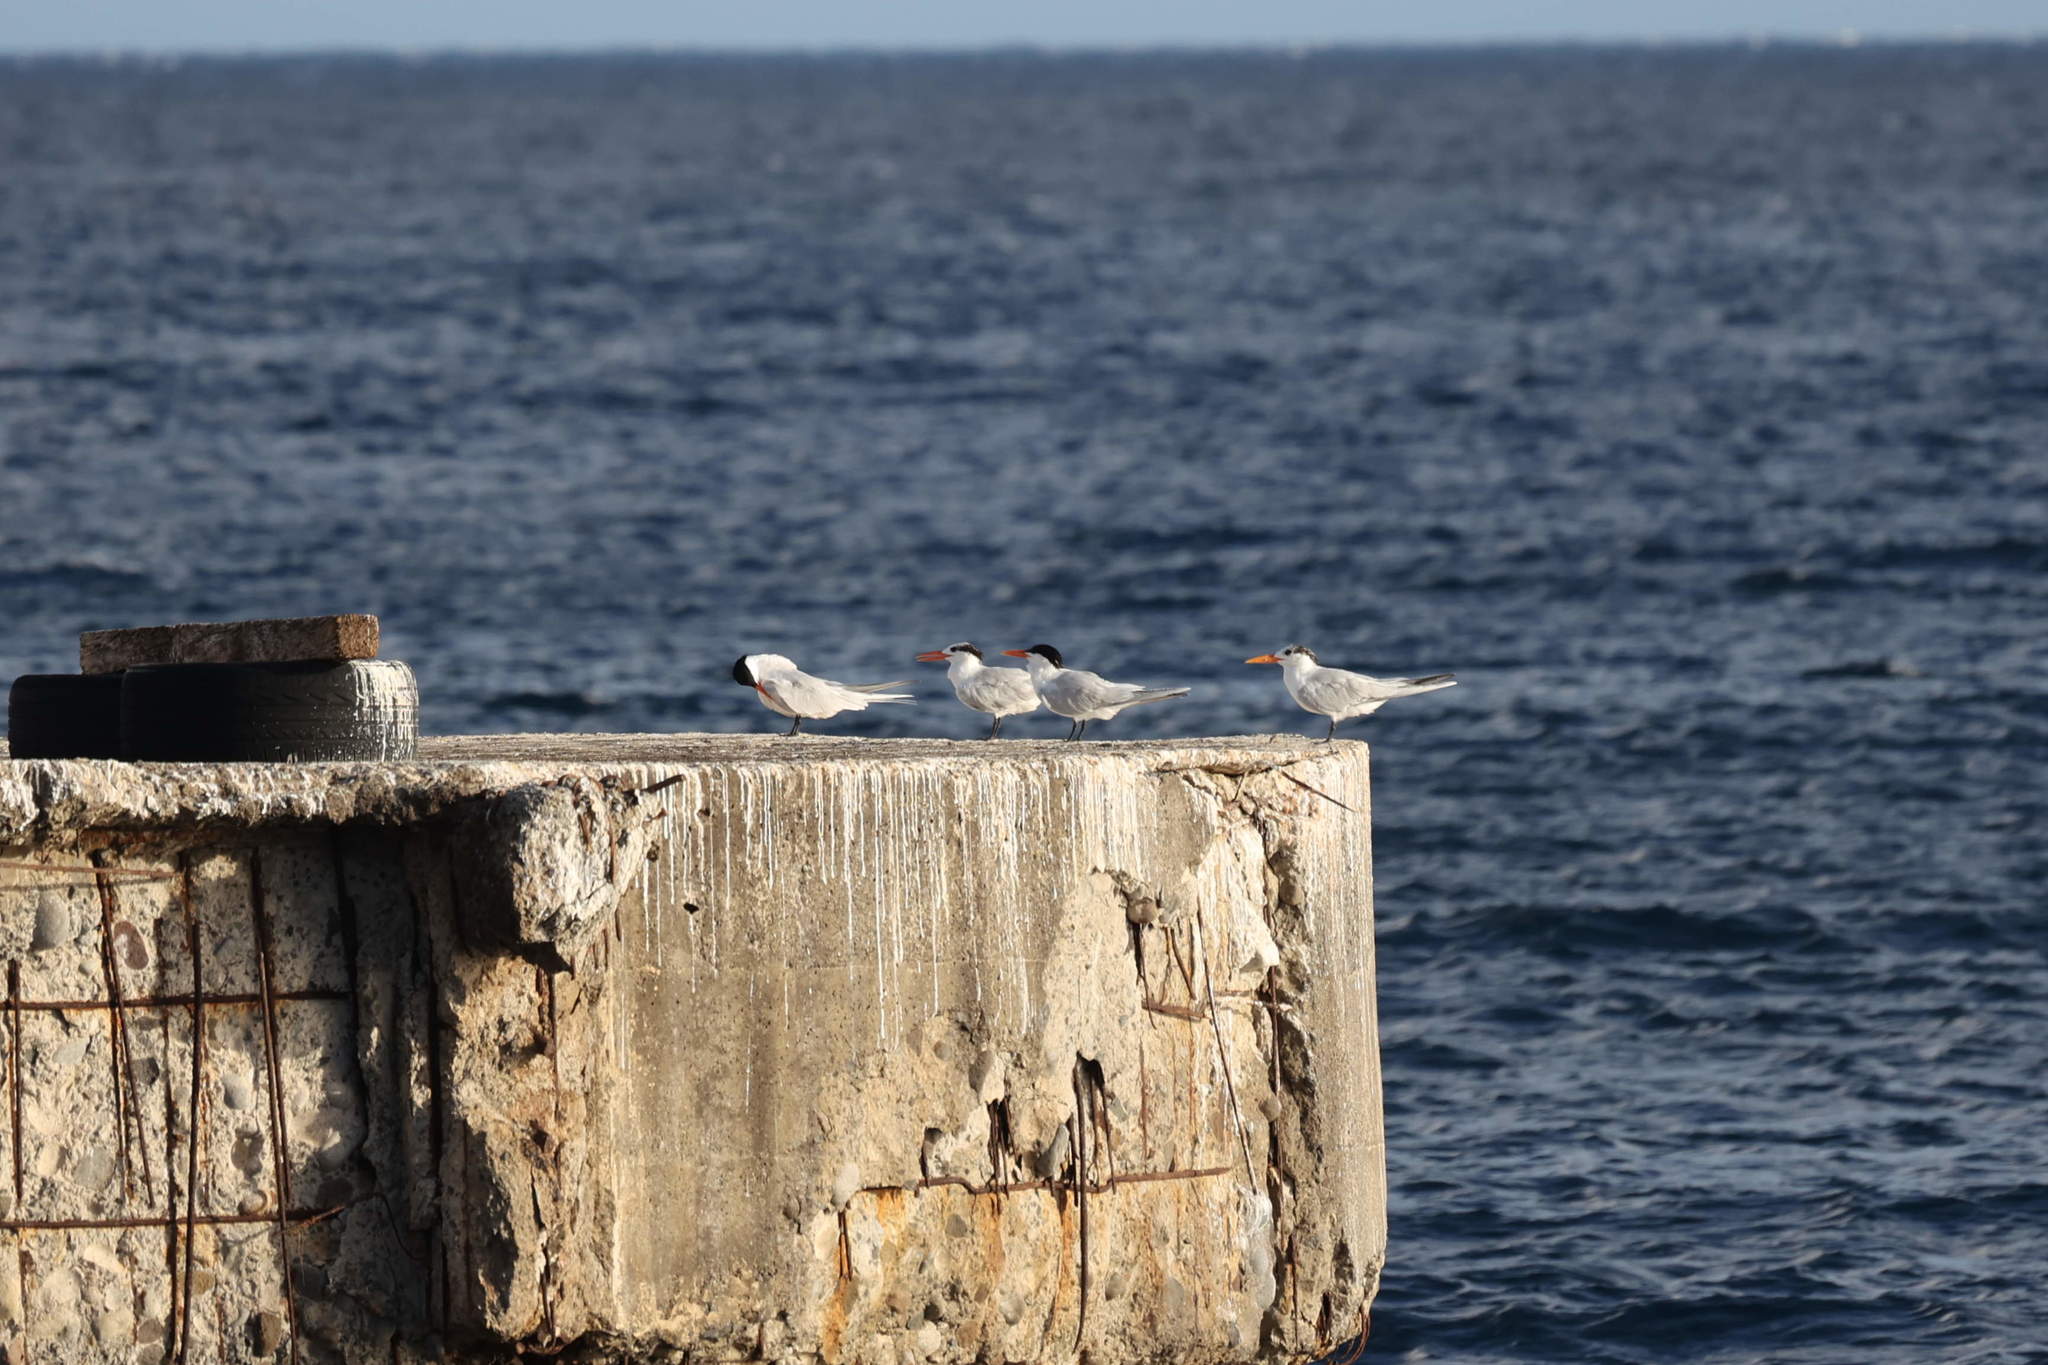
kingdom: Animalia
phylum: Chordata
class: Aves
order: Charadriiformes
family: Laridae
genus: Thalasseus
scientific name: Thalasseus maximus
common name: Royal tern
